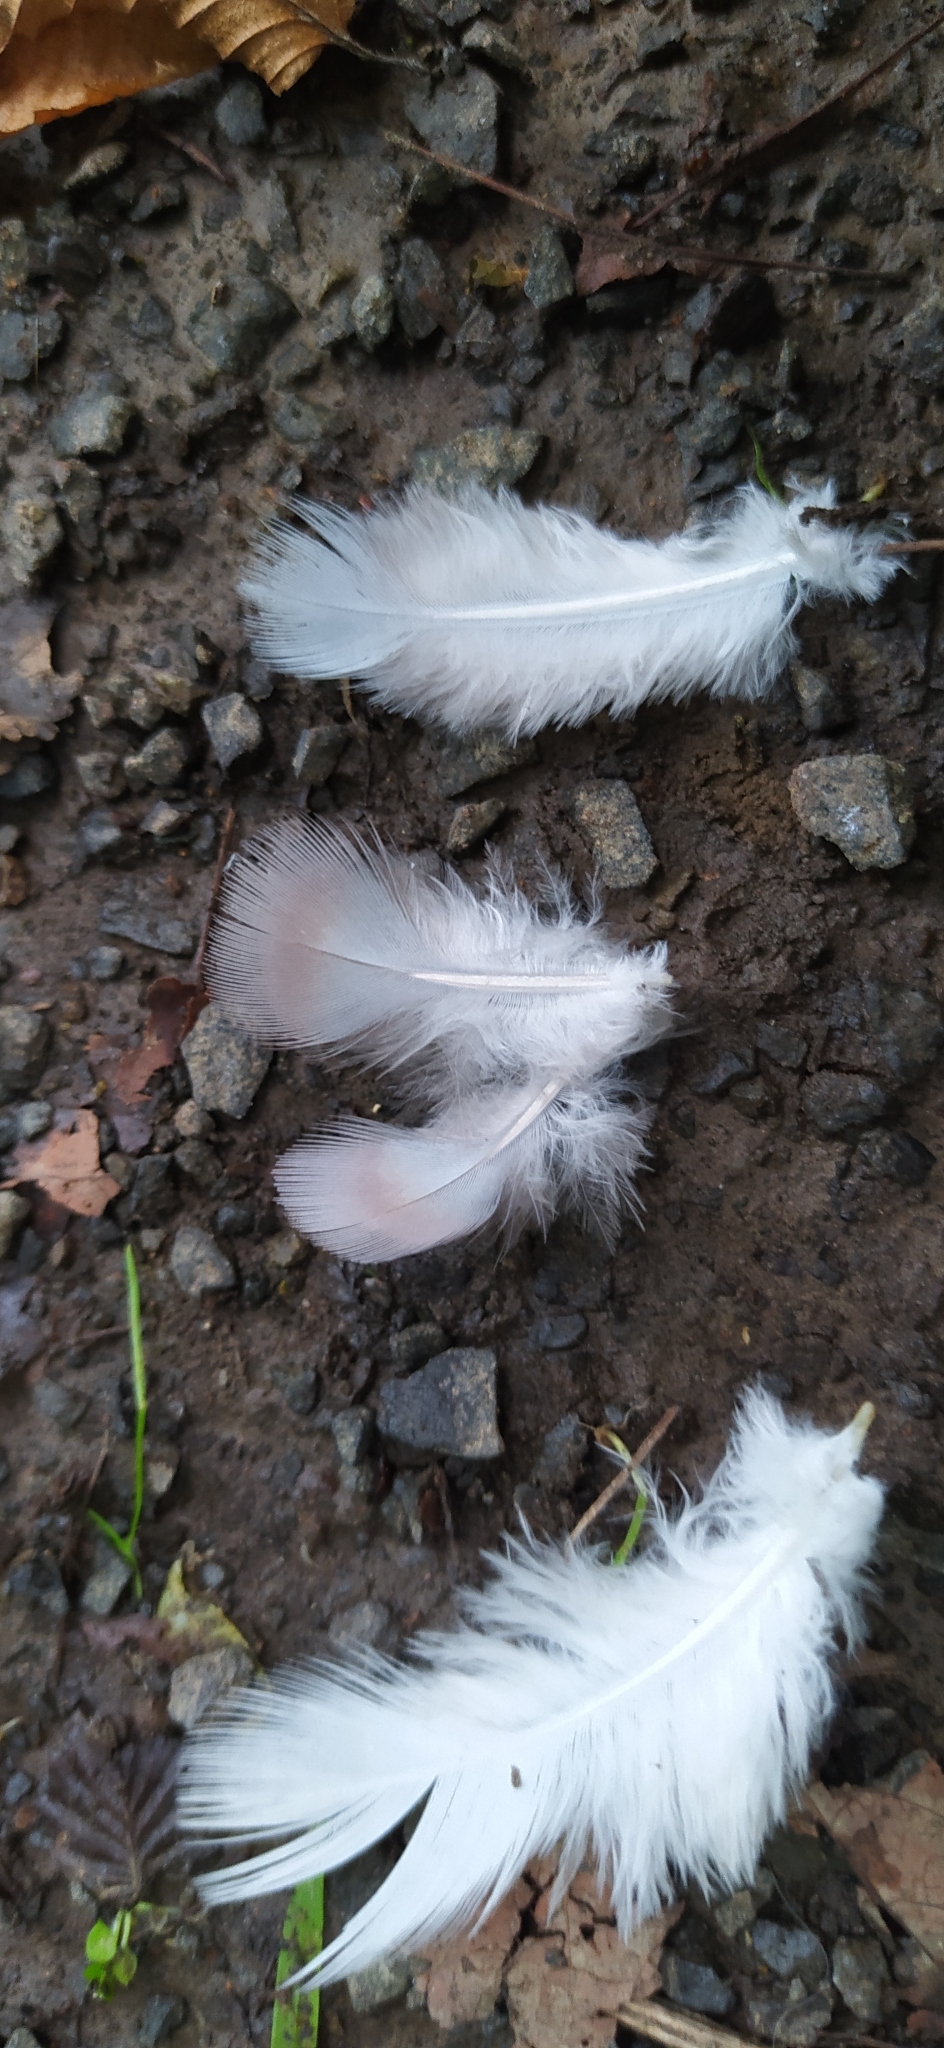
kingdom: Animalia
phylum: Chordata
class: Aves
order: Columbiformes
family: Columbidae
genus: Columba
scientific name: Columba palumbus
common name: Common wood pigeon
